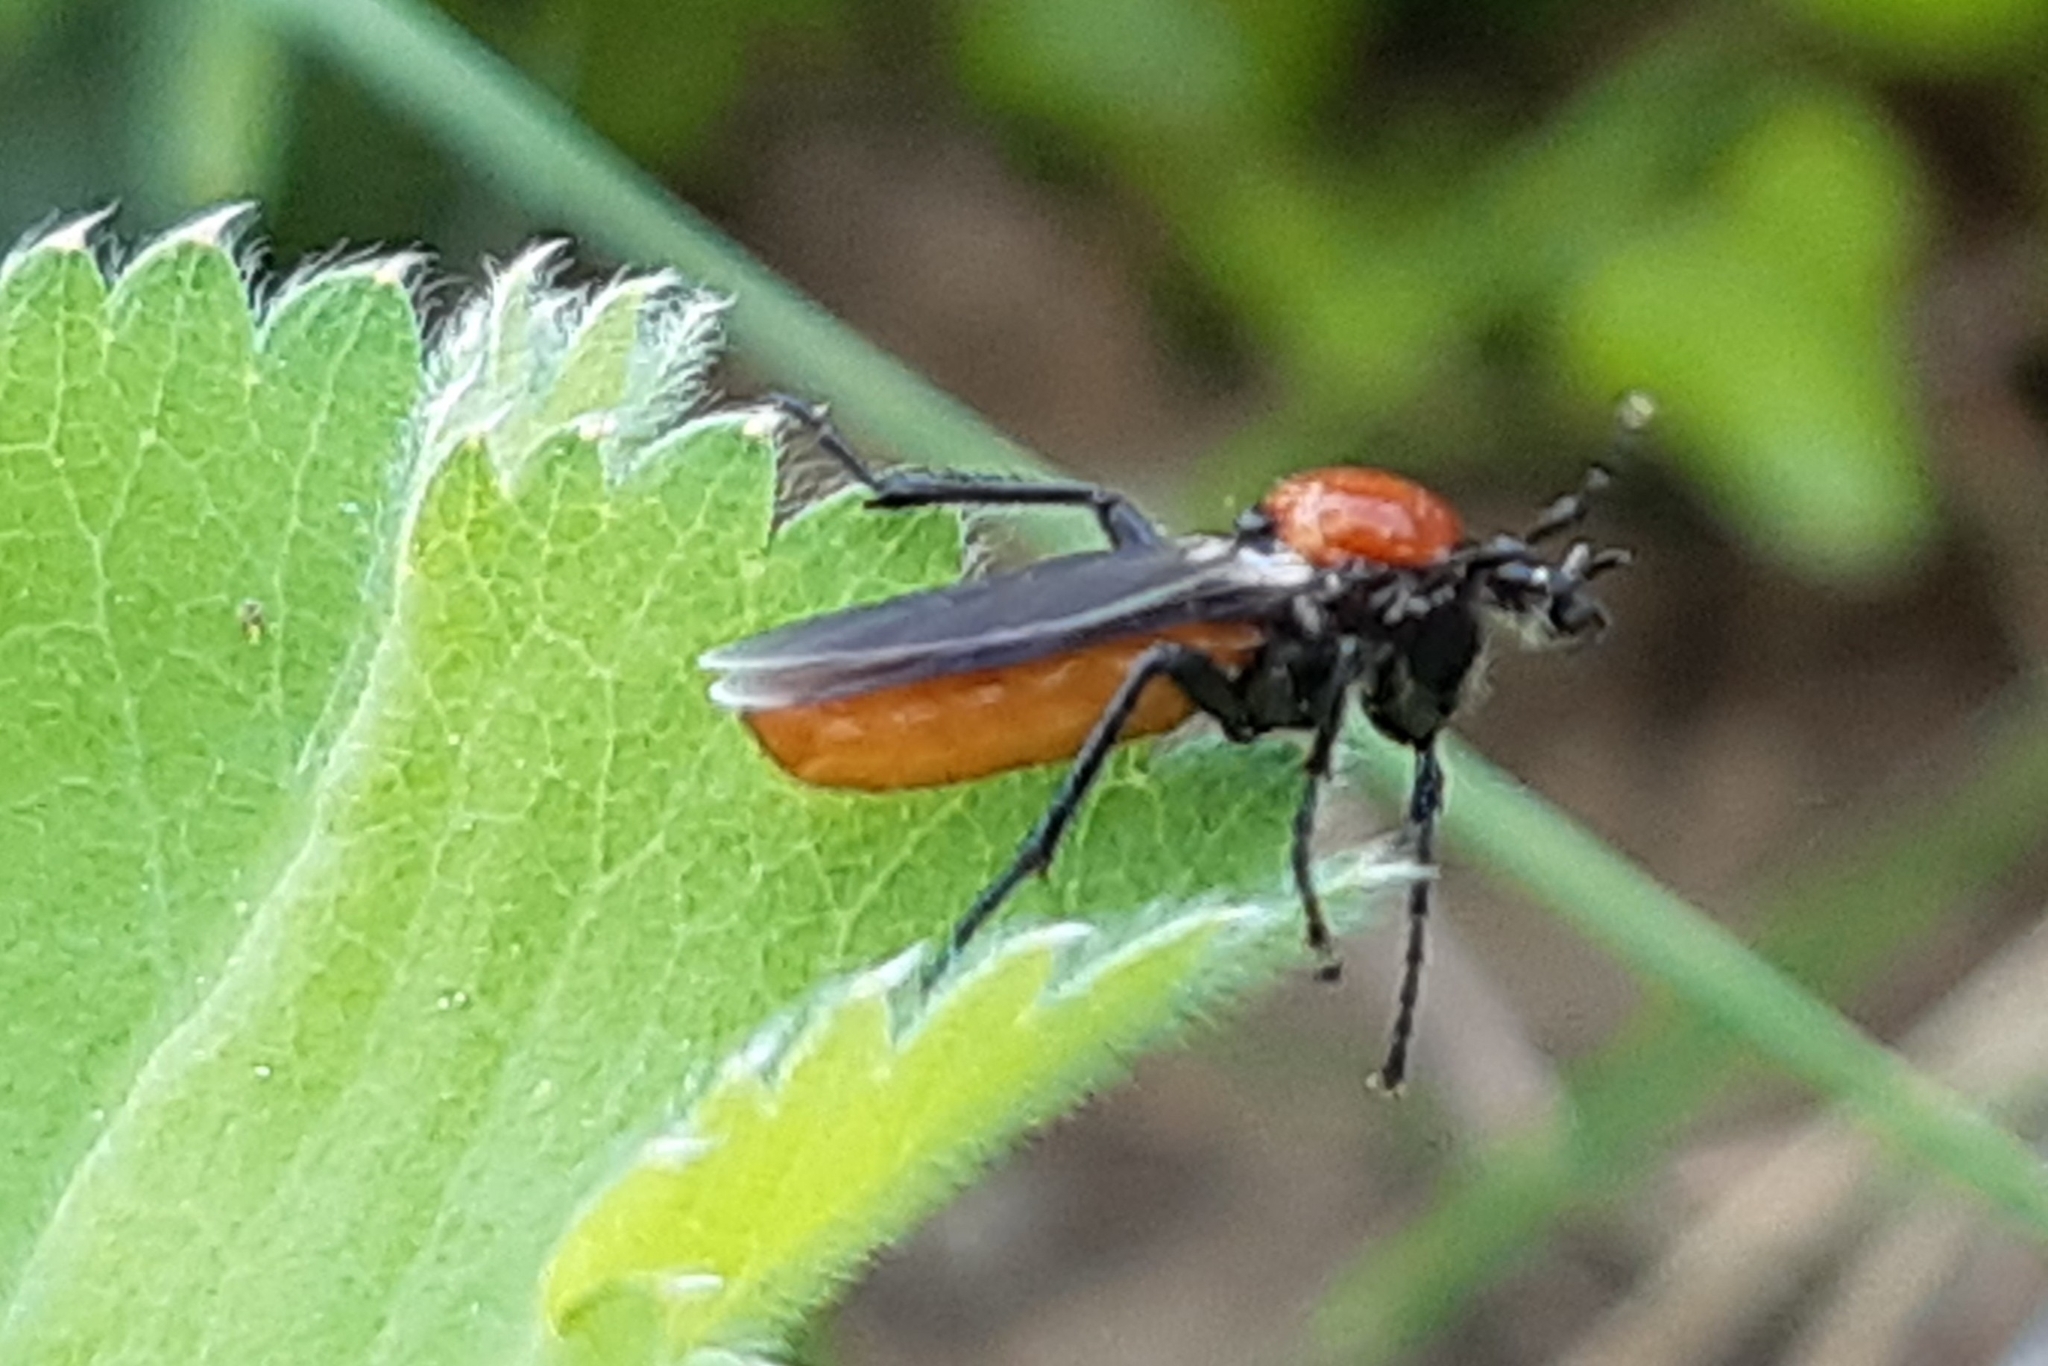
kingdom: Animalia
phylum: Arthropoda
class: Insecta
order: Diptera
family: Bibionidae
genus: Bibio
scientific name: Bibio hortulanus
